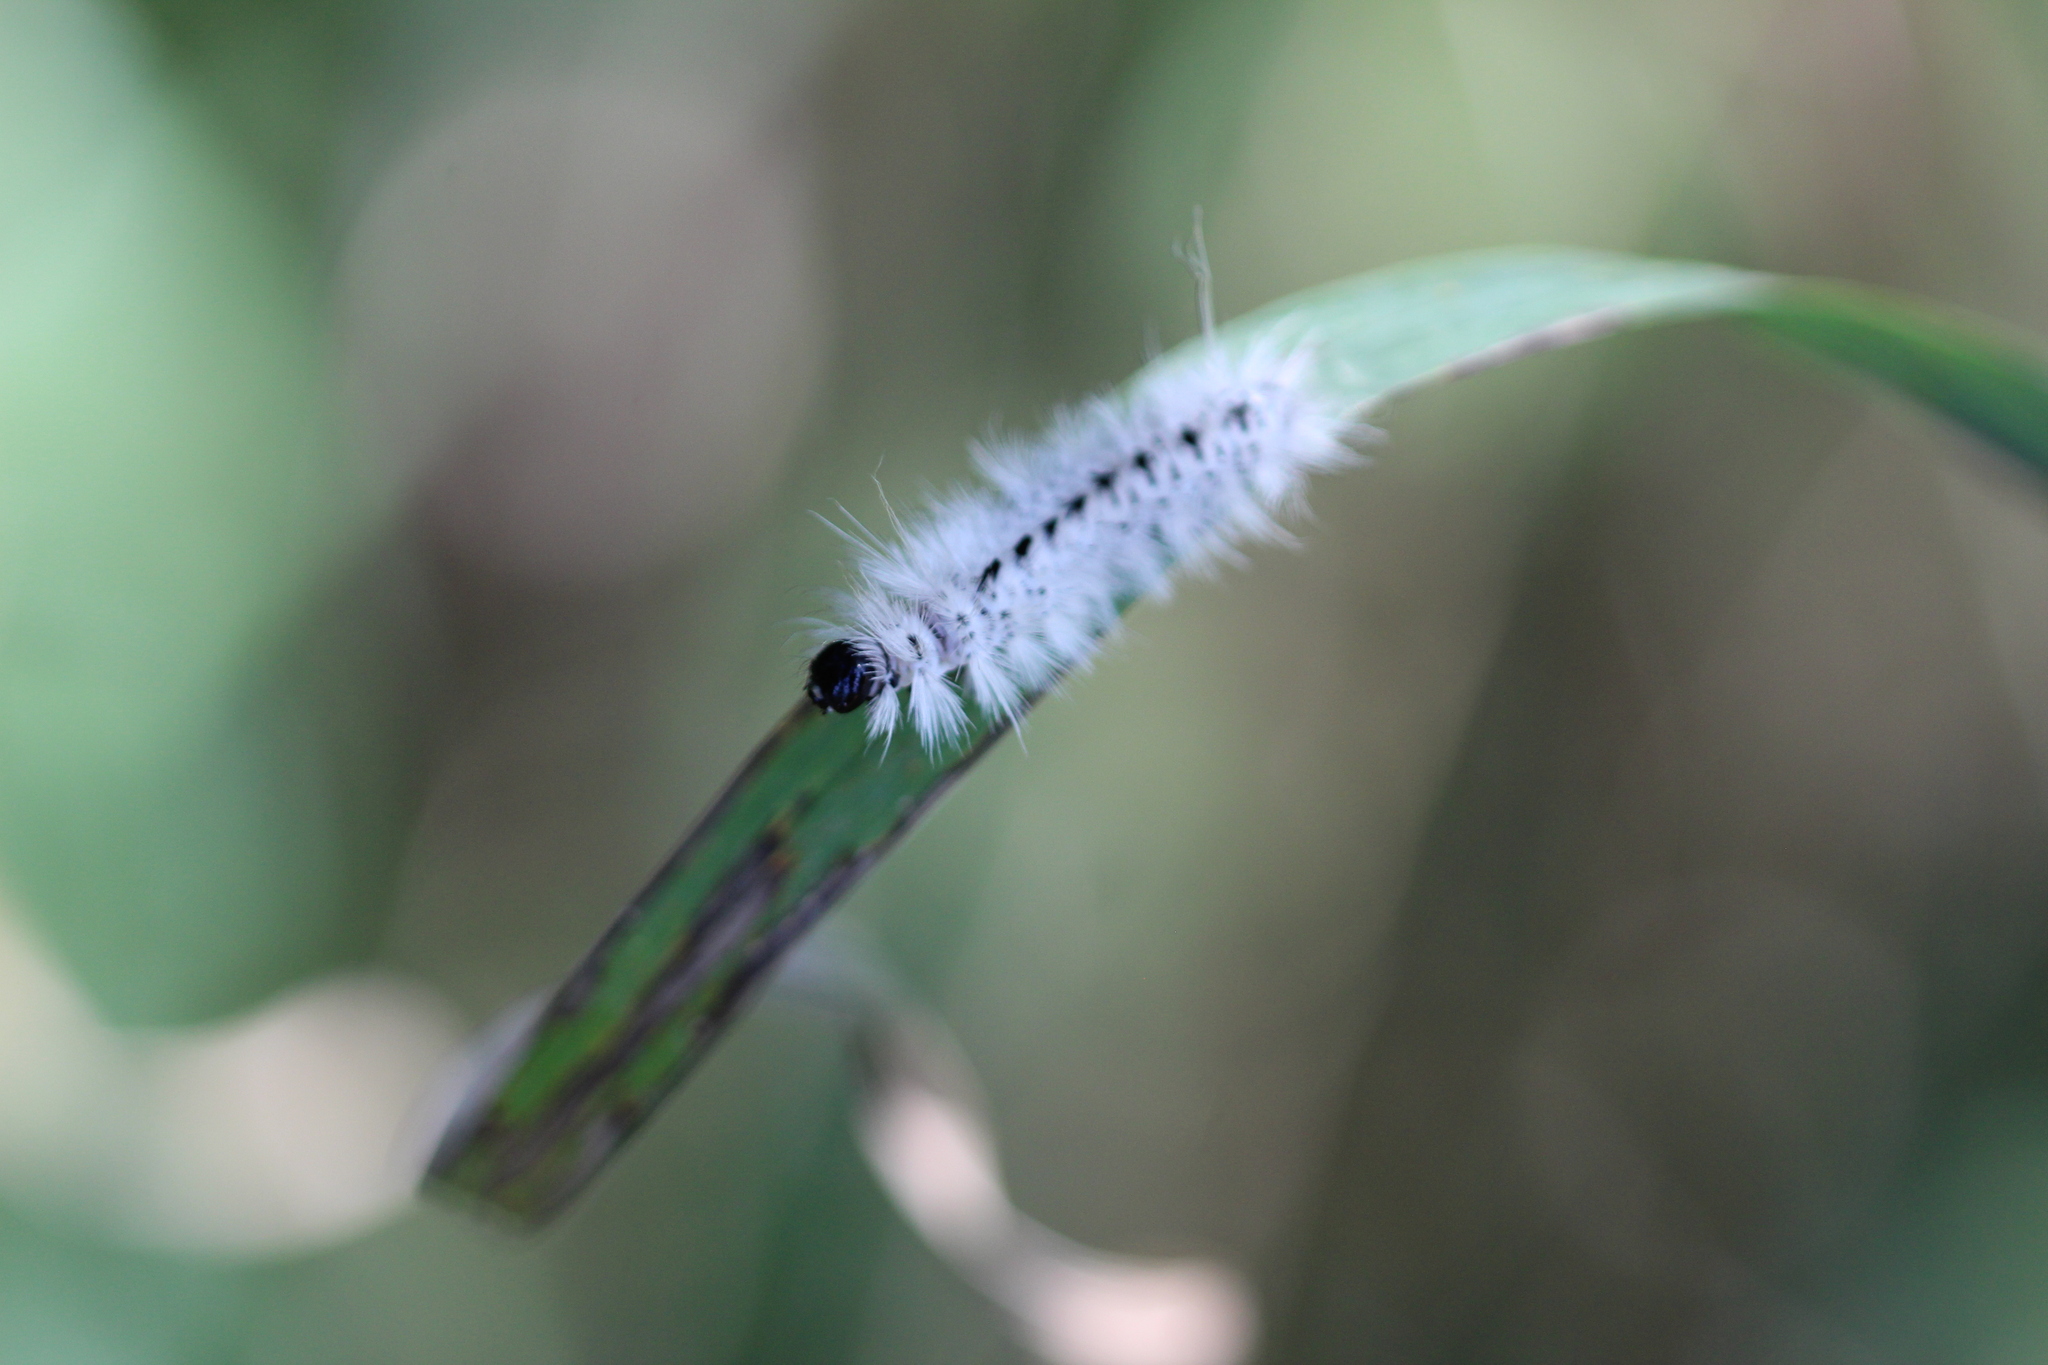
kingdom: Animalia
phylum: Arthropoda
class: Insecta
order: Lepidoptera
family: Erebidae
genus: Lophocampa
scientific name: Lophocampa caryae
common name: Hickory tussock moth
